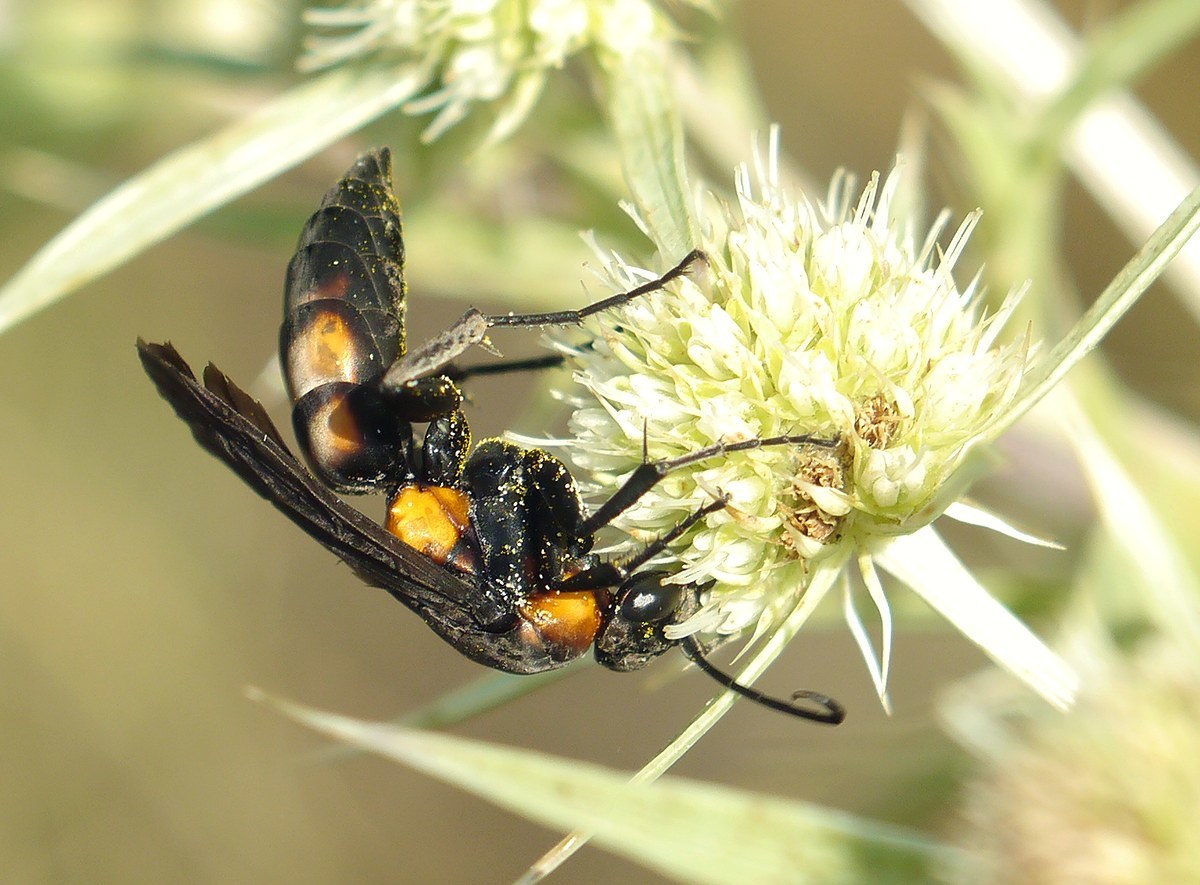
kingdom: Animalia
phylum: Arthropoda
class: Insecta
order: Hymenoptera
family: Pompilidae
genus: Eoferreola
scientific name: Eoferreola erythraea
